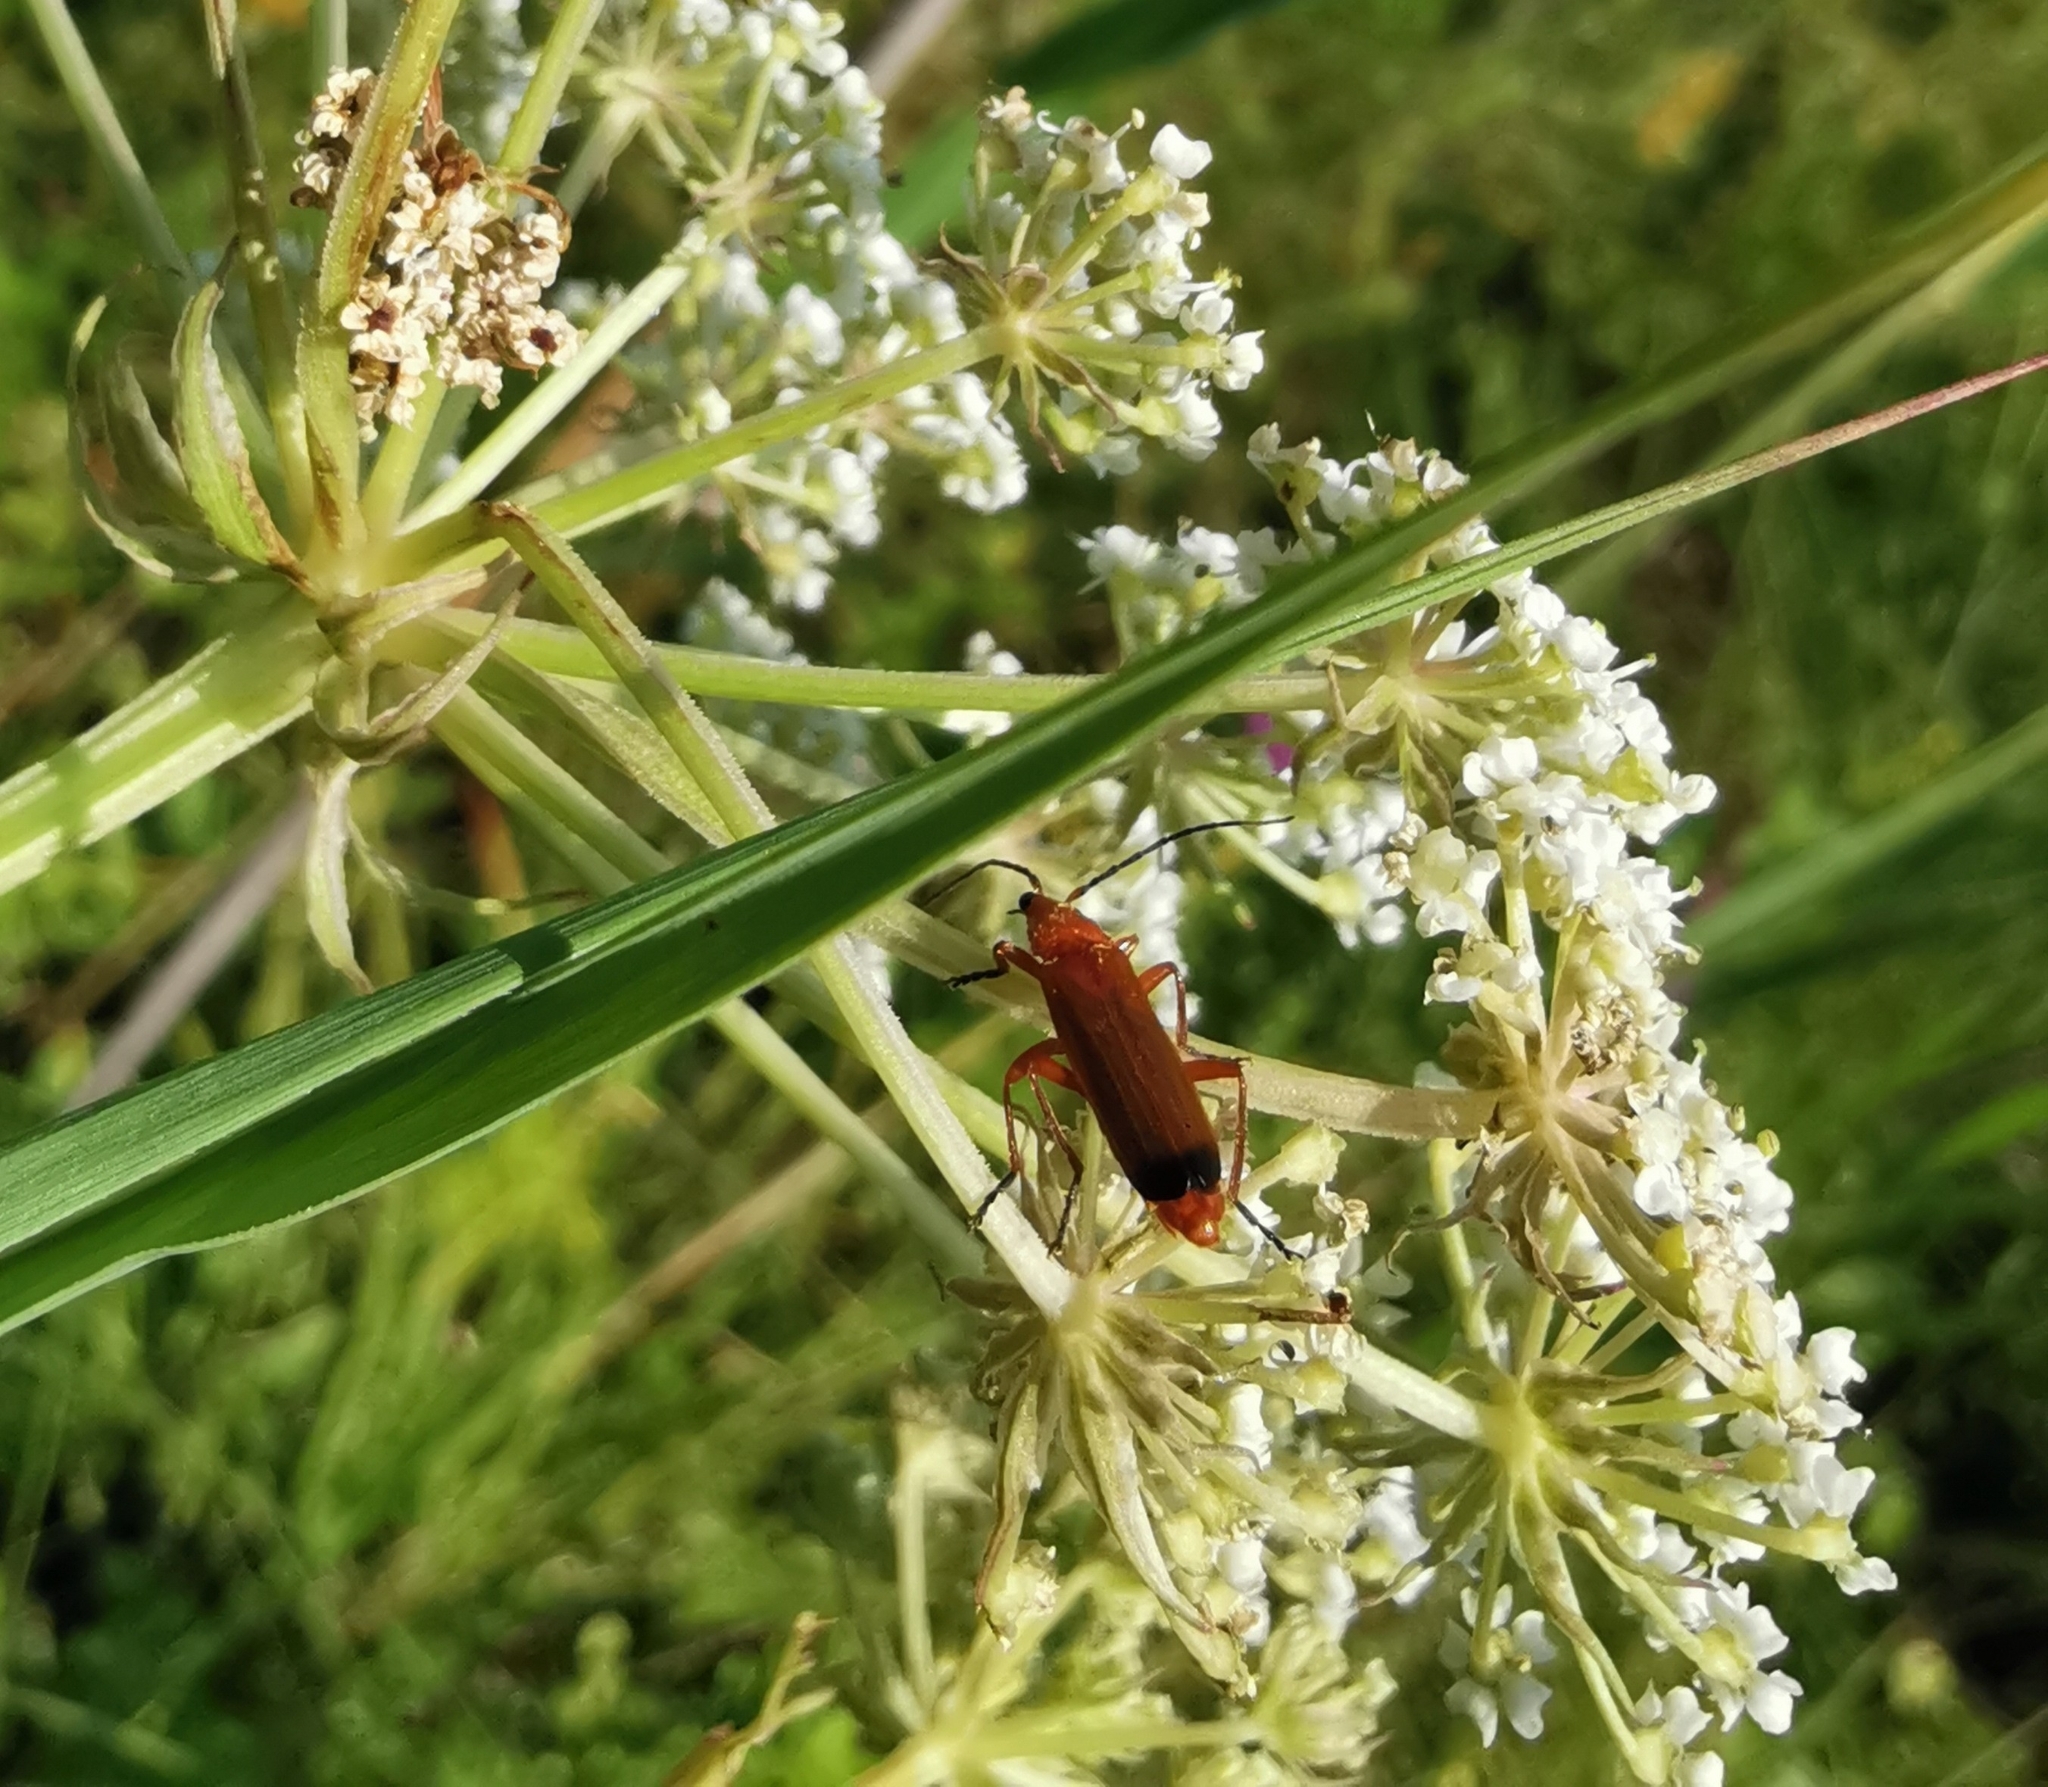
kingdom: Animalia
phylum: Arthropoda
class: Insecta
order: Coleoptera
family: Cantharidae
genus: Rhagonycha
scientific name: Rhagonycha fulva
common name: Common red soldier beetle
